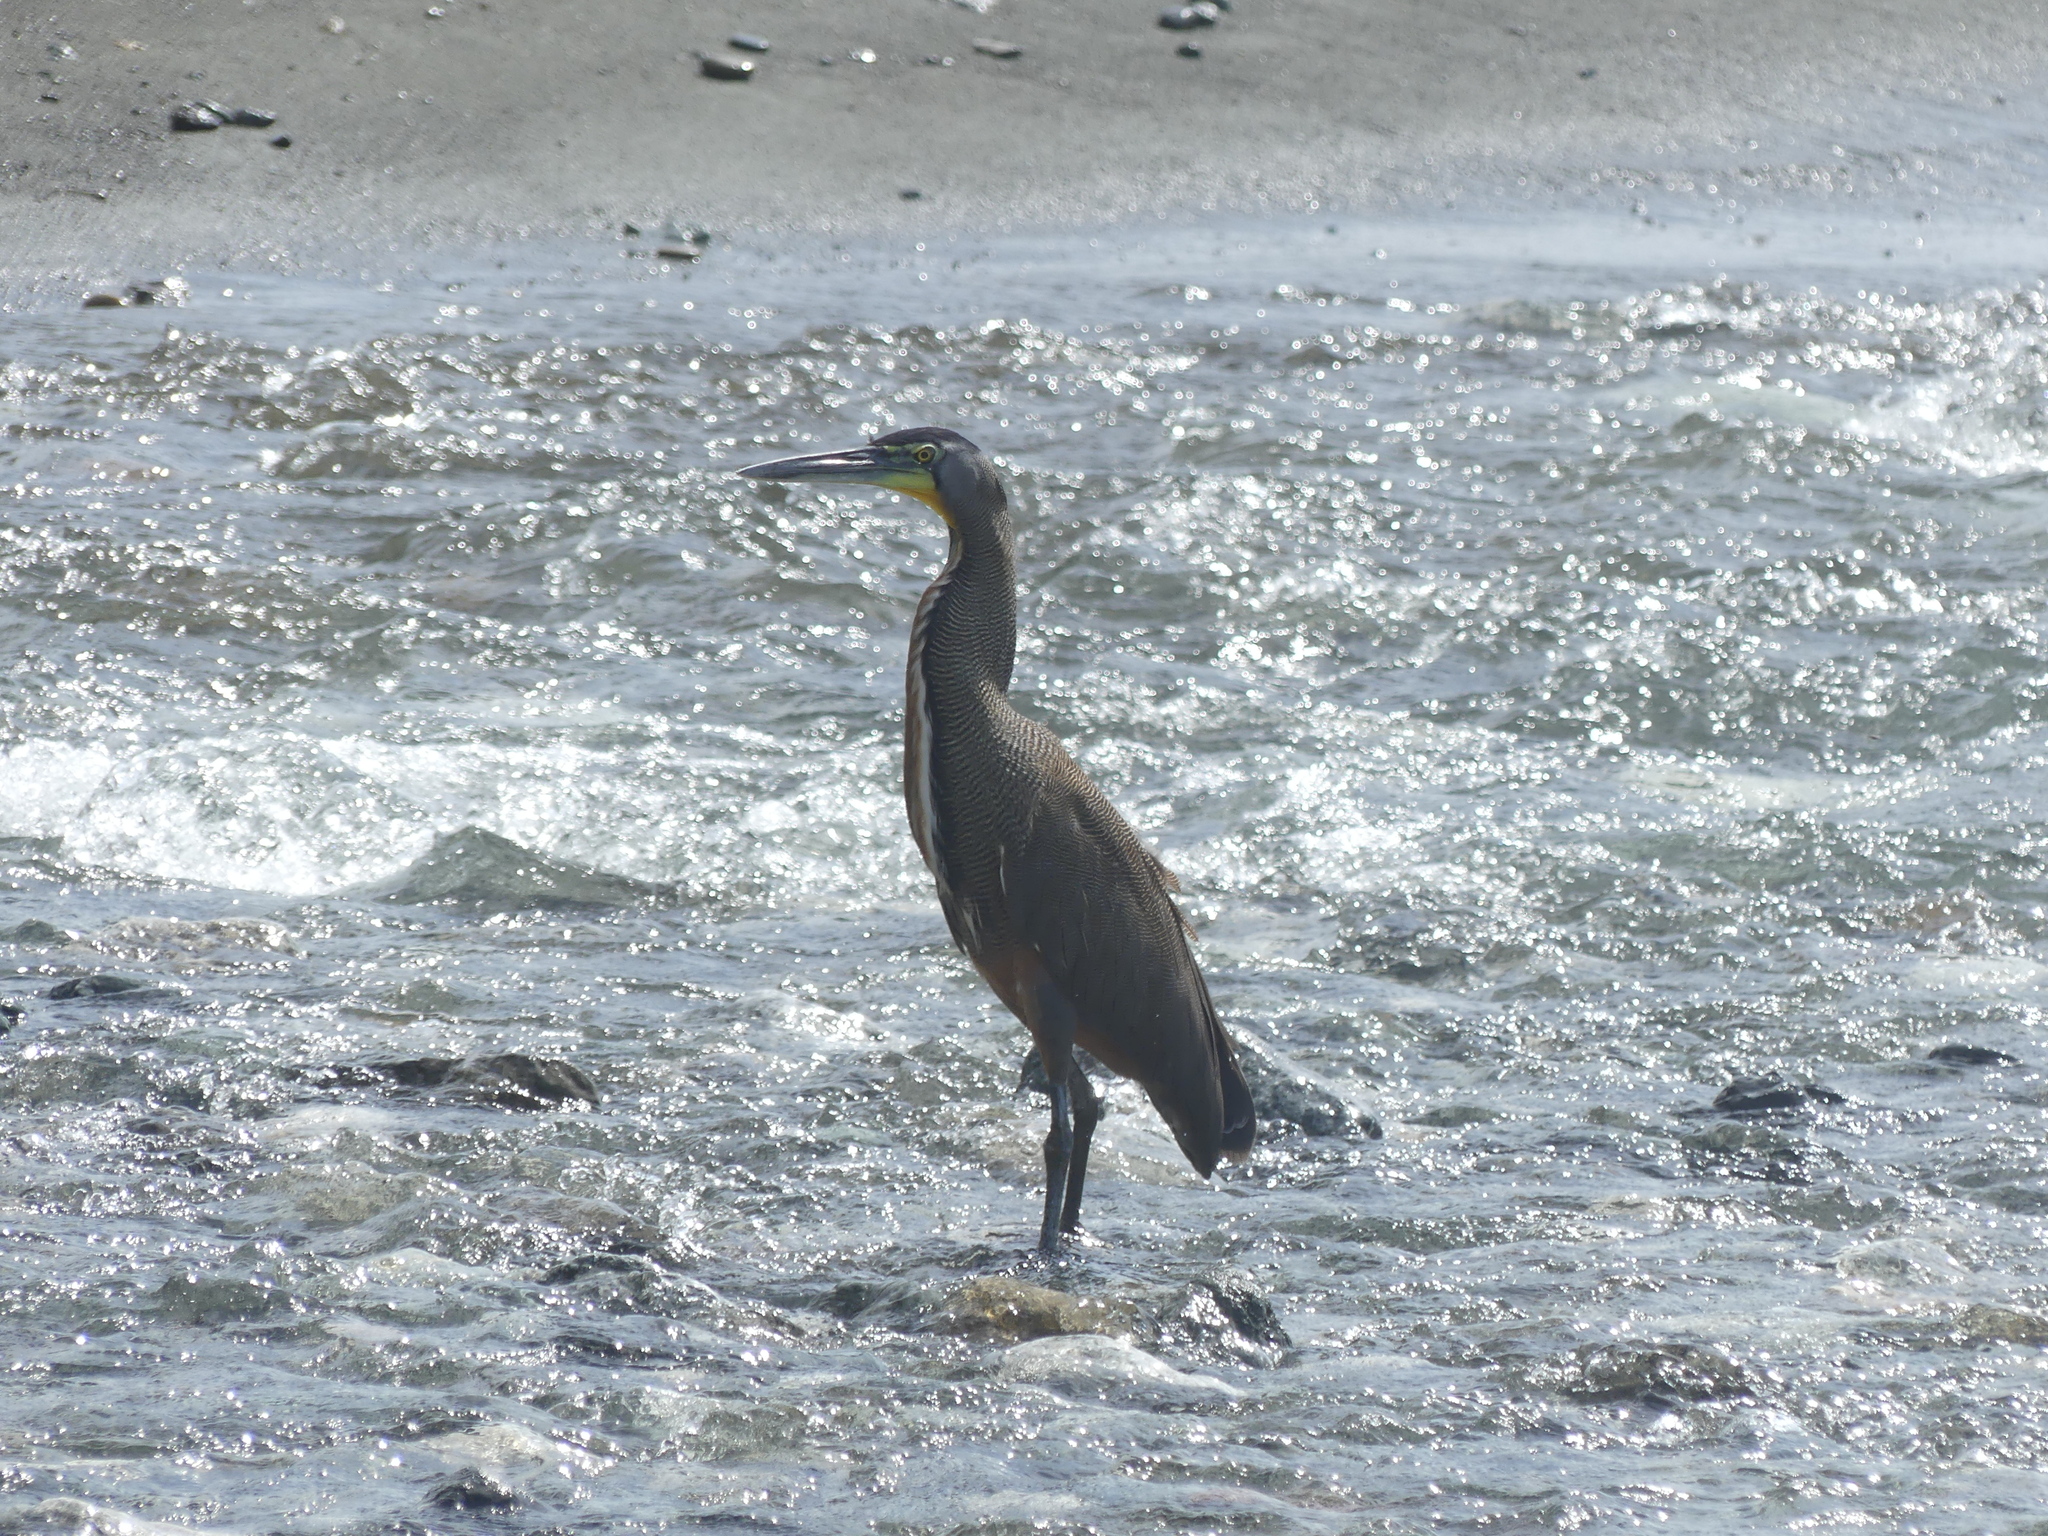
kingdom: Animalia
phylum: Chordata
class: Aves
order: Pelecaniformes
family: Ardeidae
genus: Tigrisoma
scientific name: Tigrisoma mexicanum
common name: Bare-throated tiger-heron
